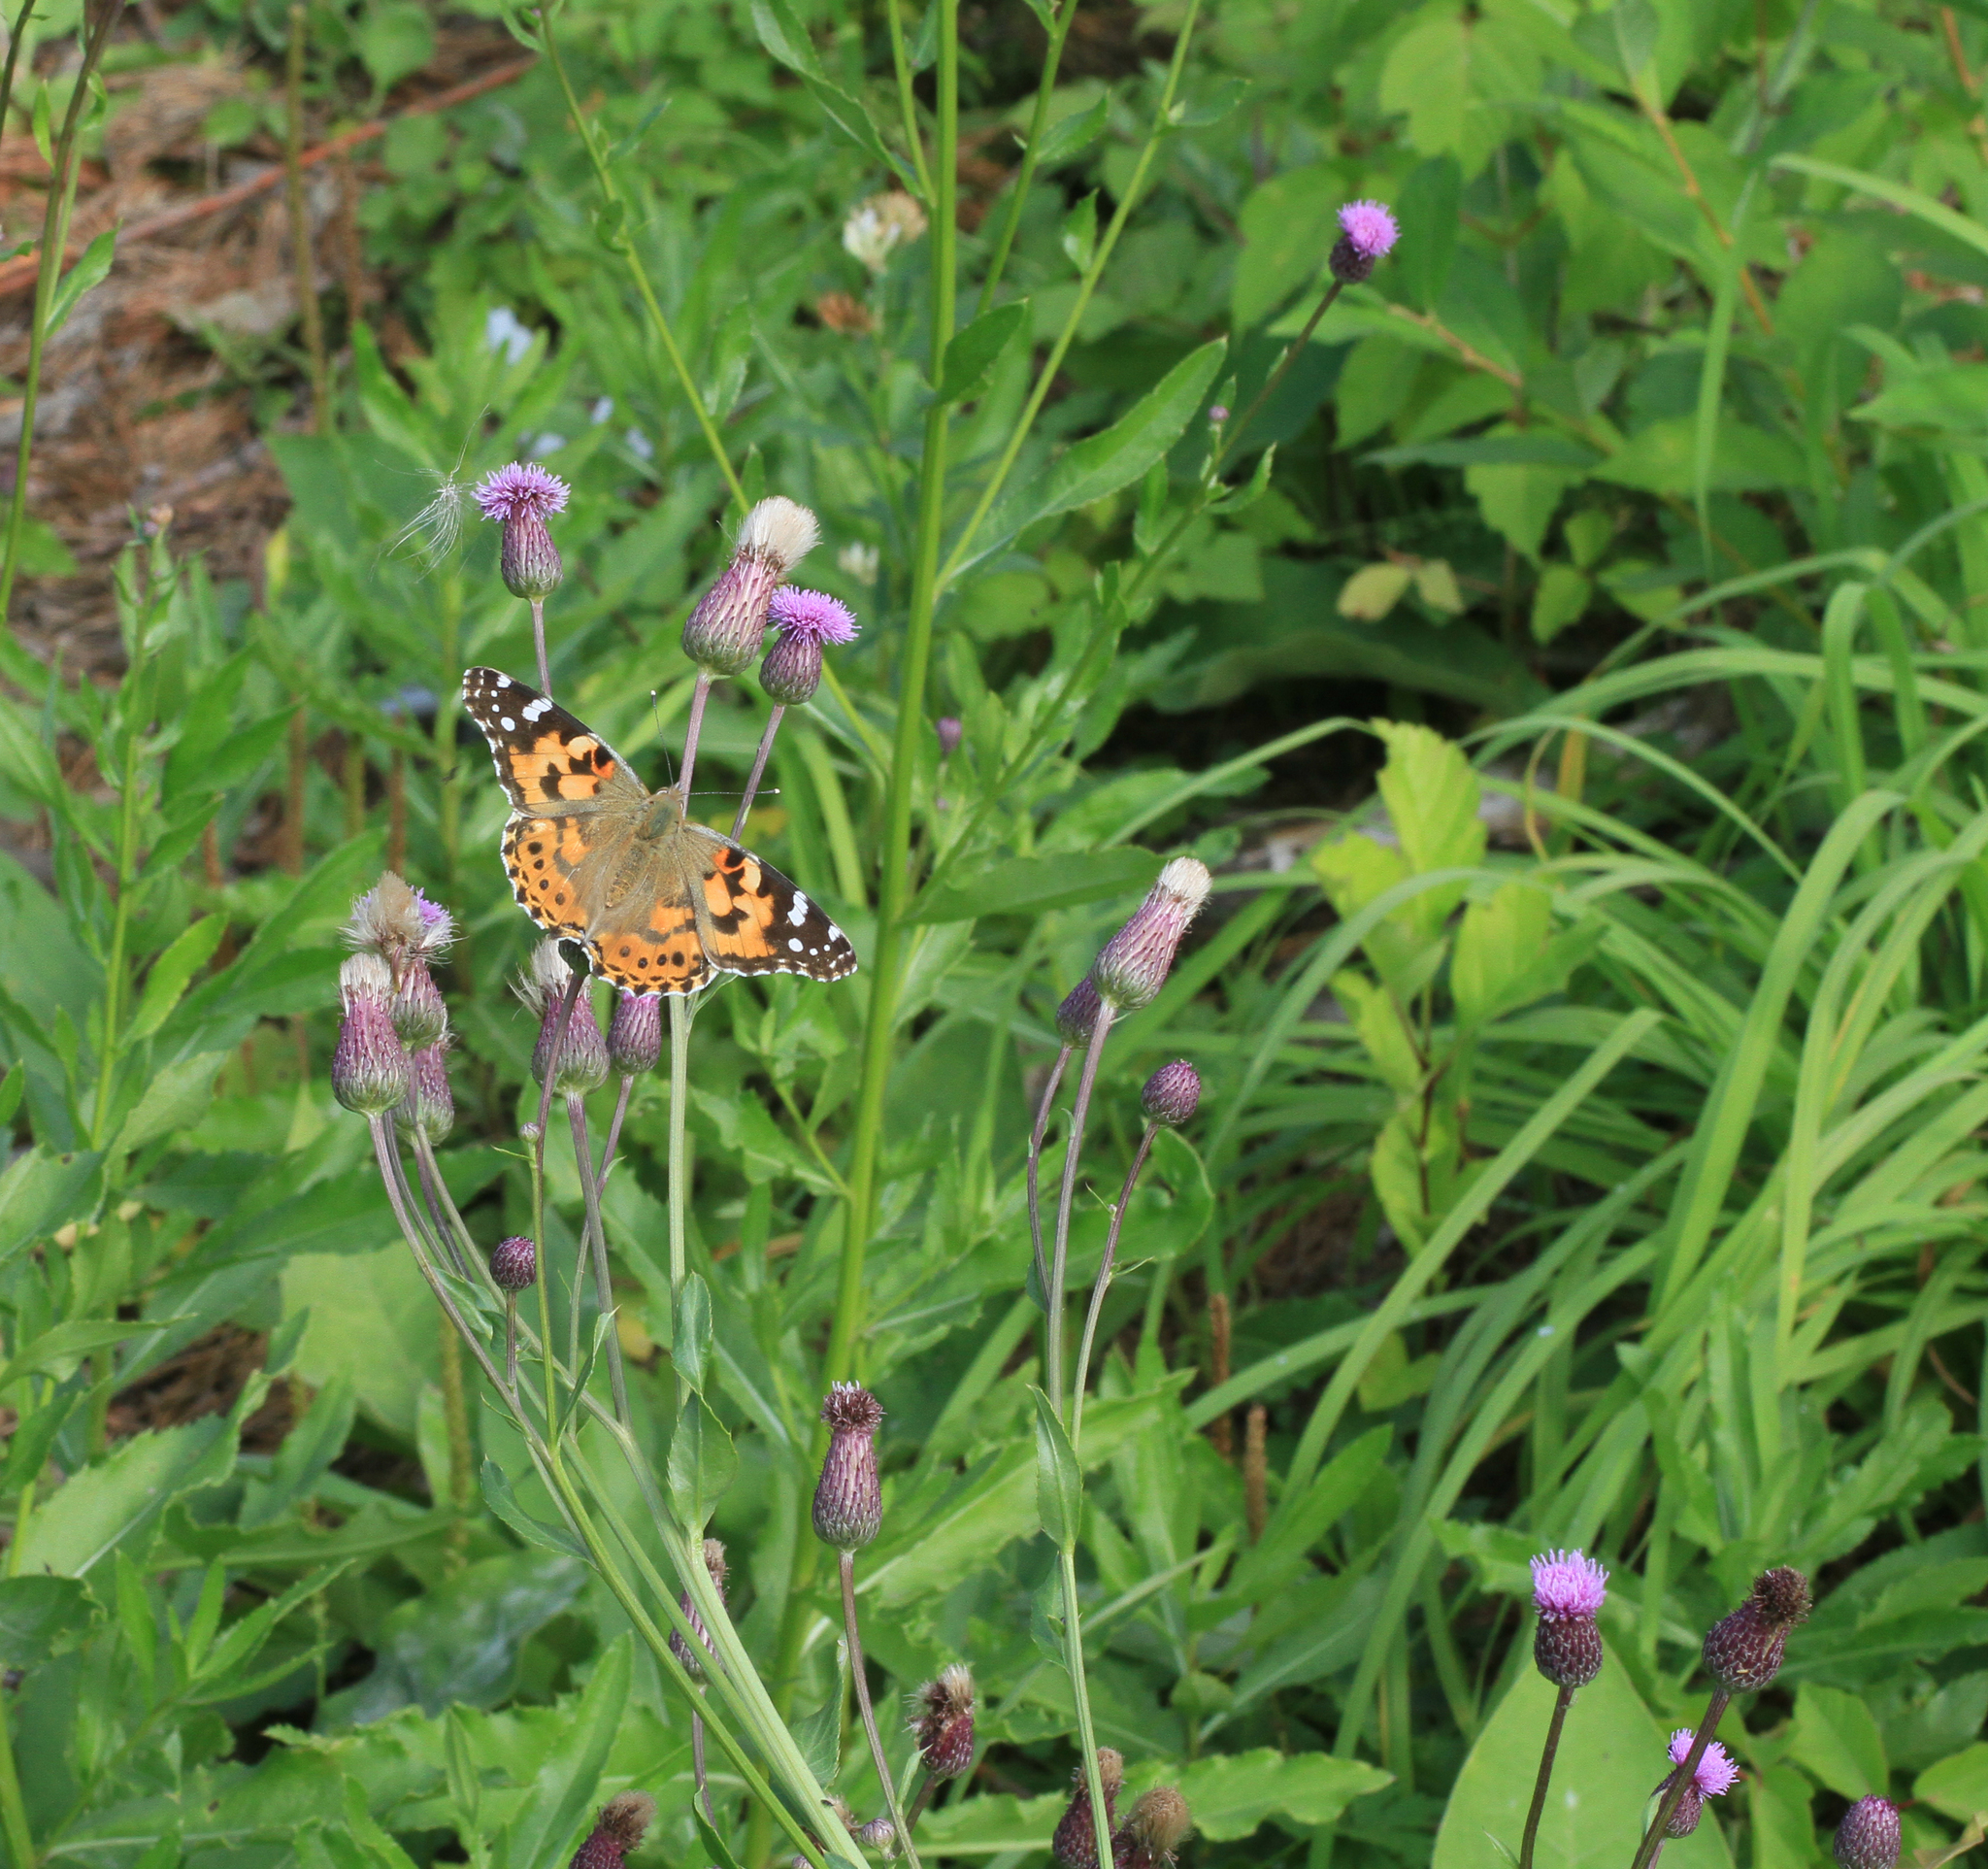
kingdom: Plantae
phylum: Tracheophyta
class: Magnoliopsida
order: Asterales
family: Asteraceae
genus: Cirsium
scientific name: Cirsium arvense
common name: Creeping thistle
